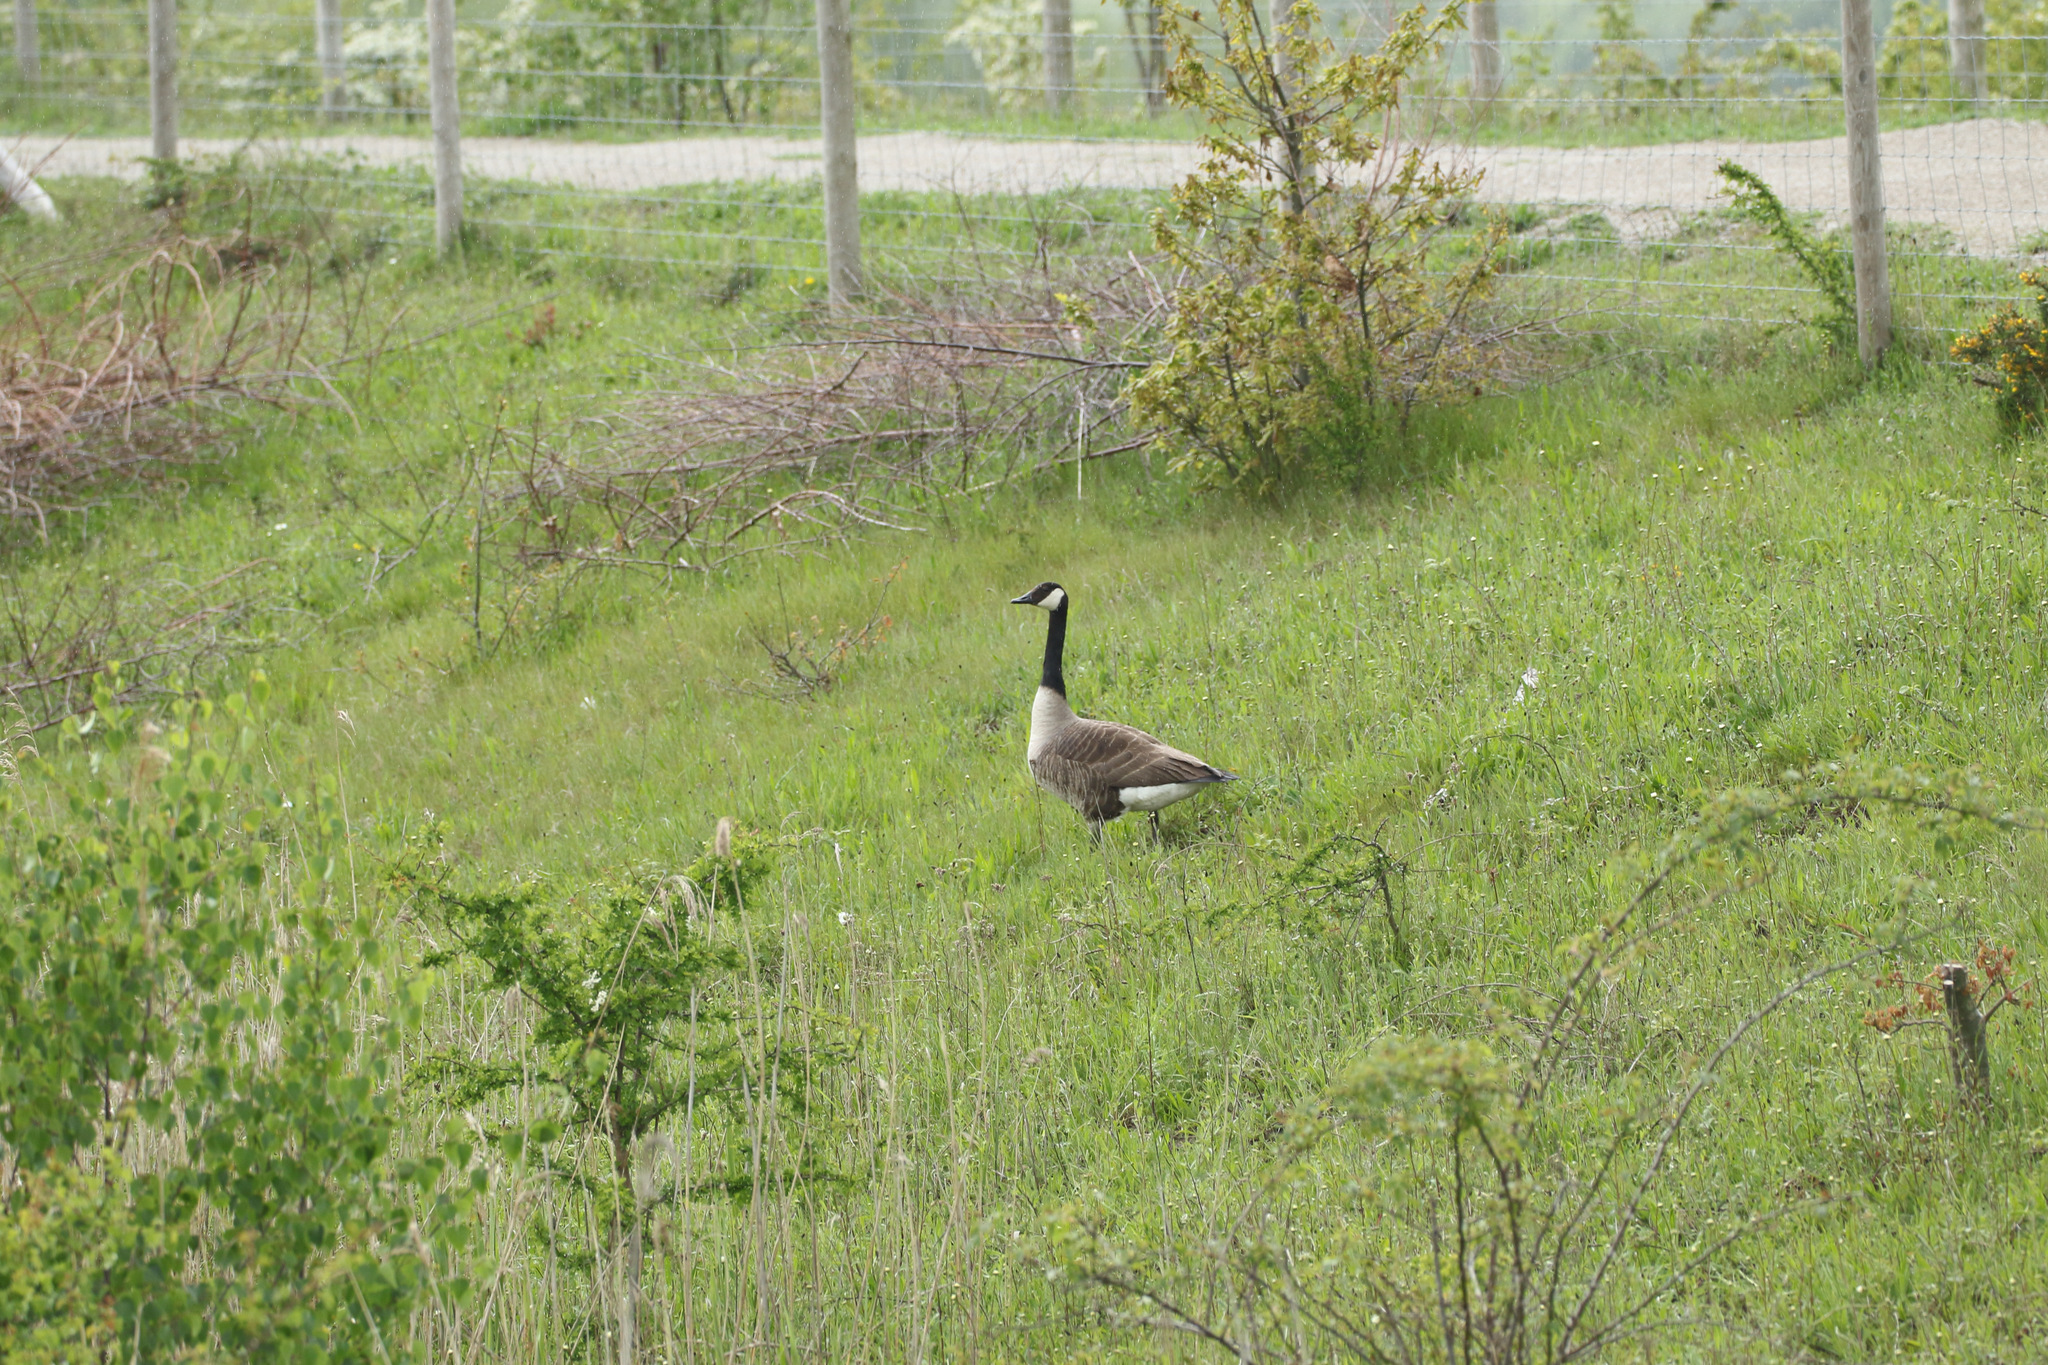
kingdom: Animalia
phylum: Chordata
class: Aves
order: Anseriformes
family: Anatidae
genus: Branta
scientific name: Branta canadensis
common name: Canada goose
